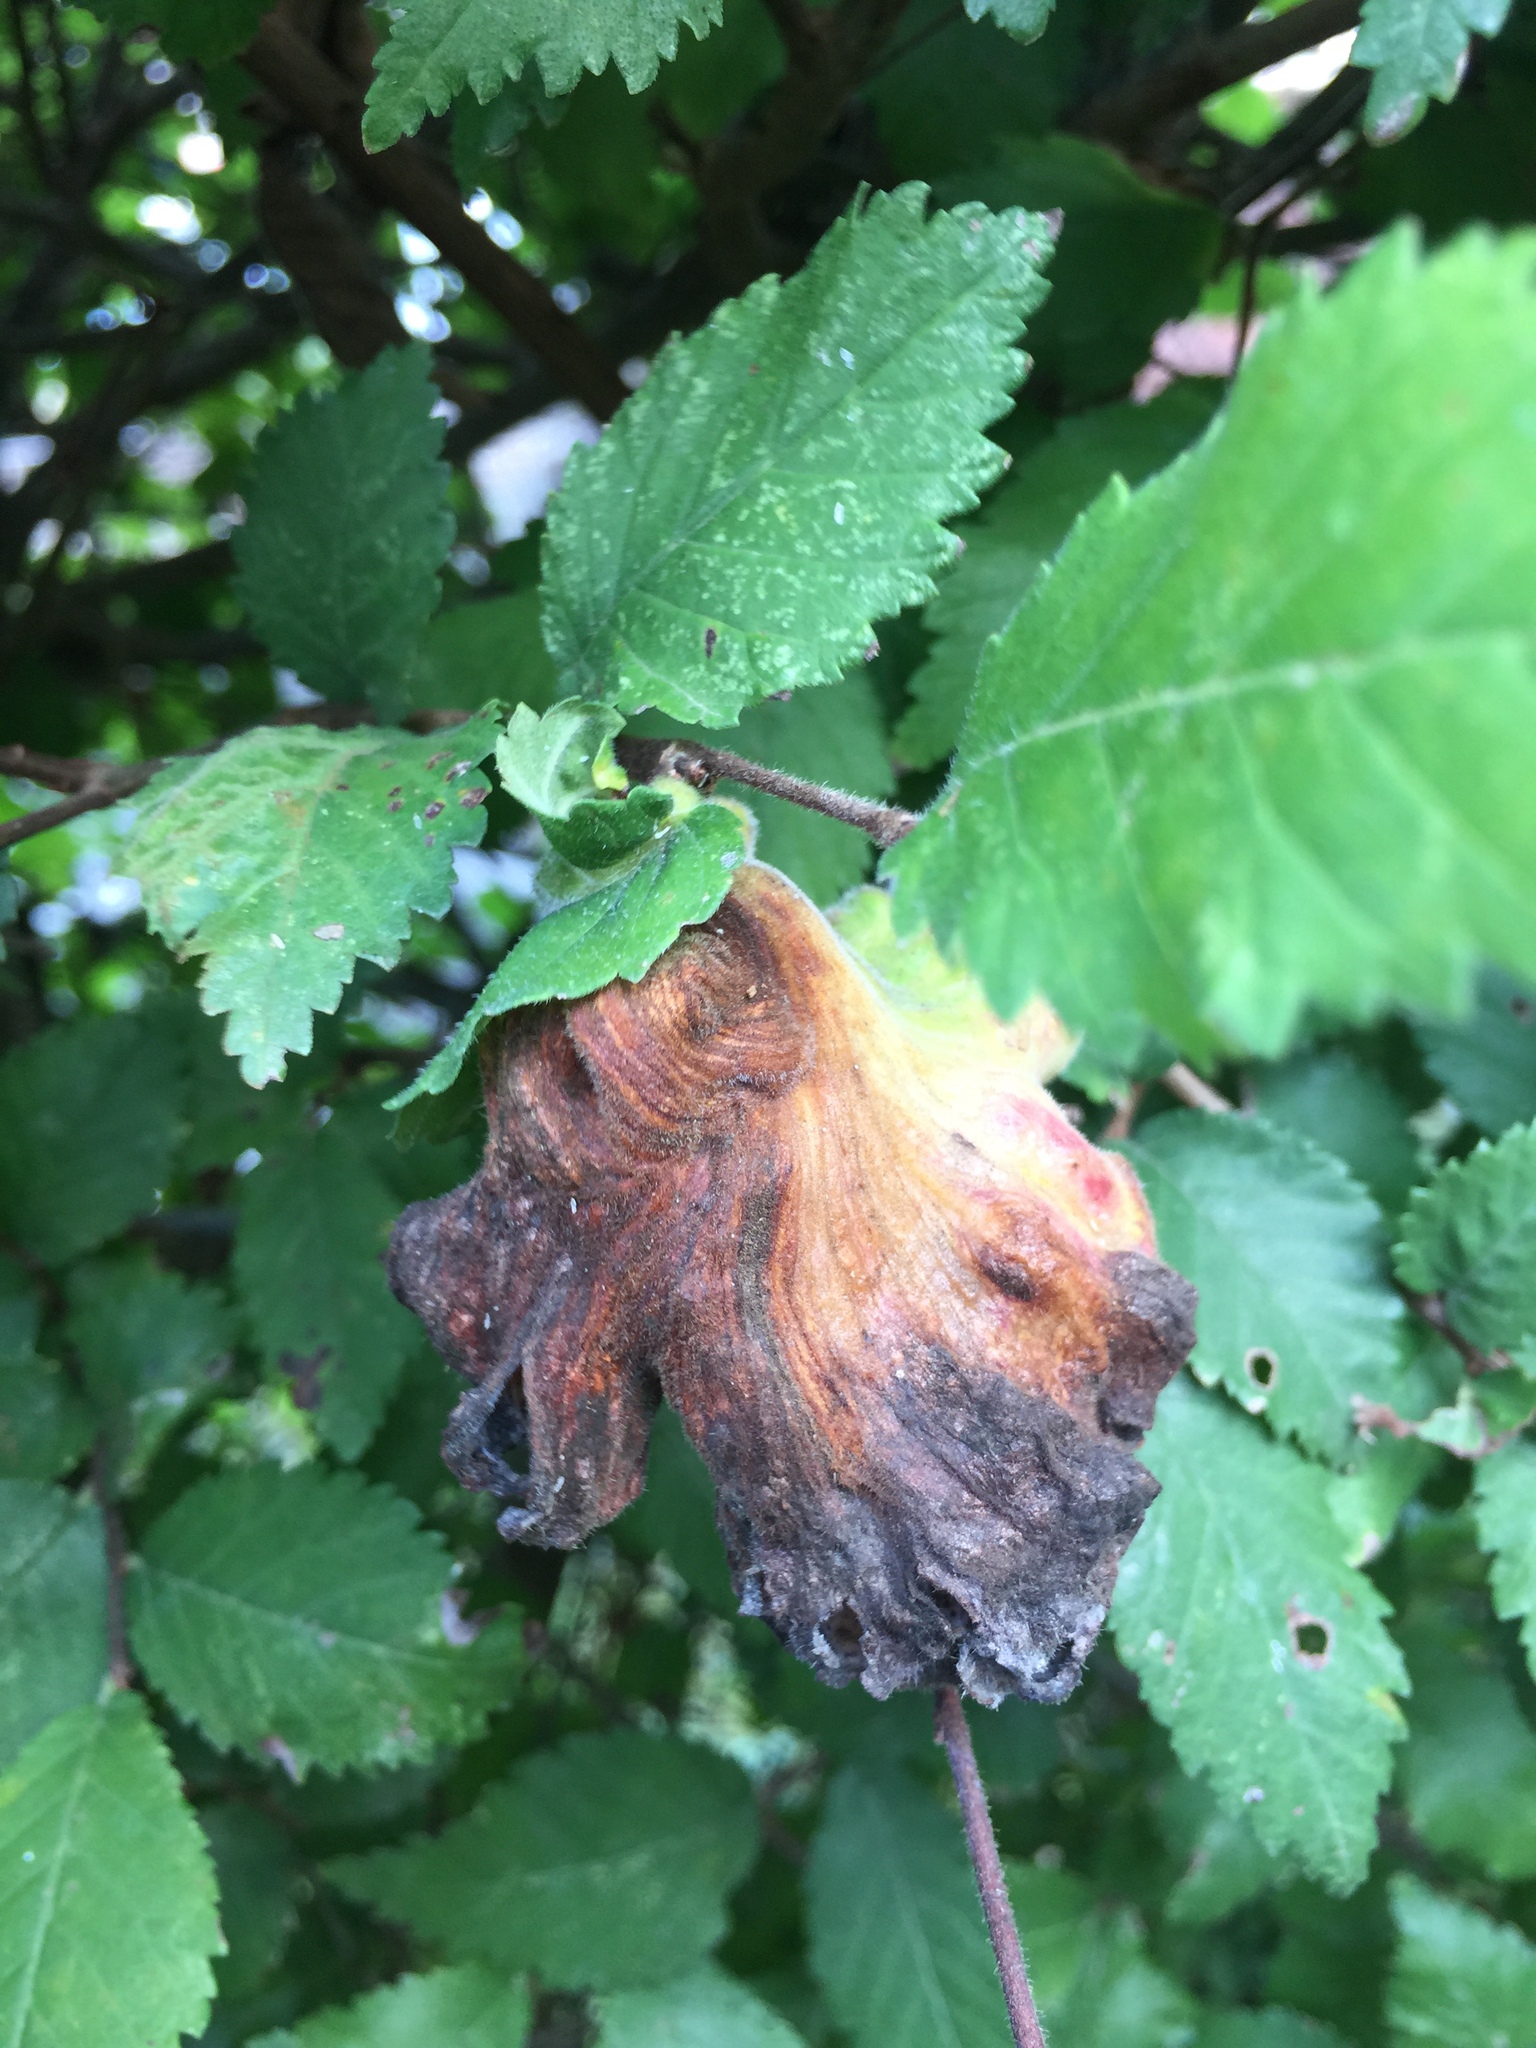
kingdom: Animalia
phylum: Arthropoda
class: Insecta
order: Hemiptera
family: Aphididae
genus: Eriosoma
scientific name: Eriosoma lanuginosum
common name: Aphid
